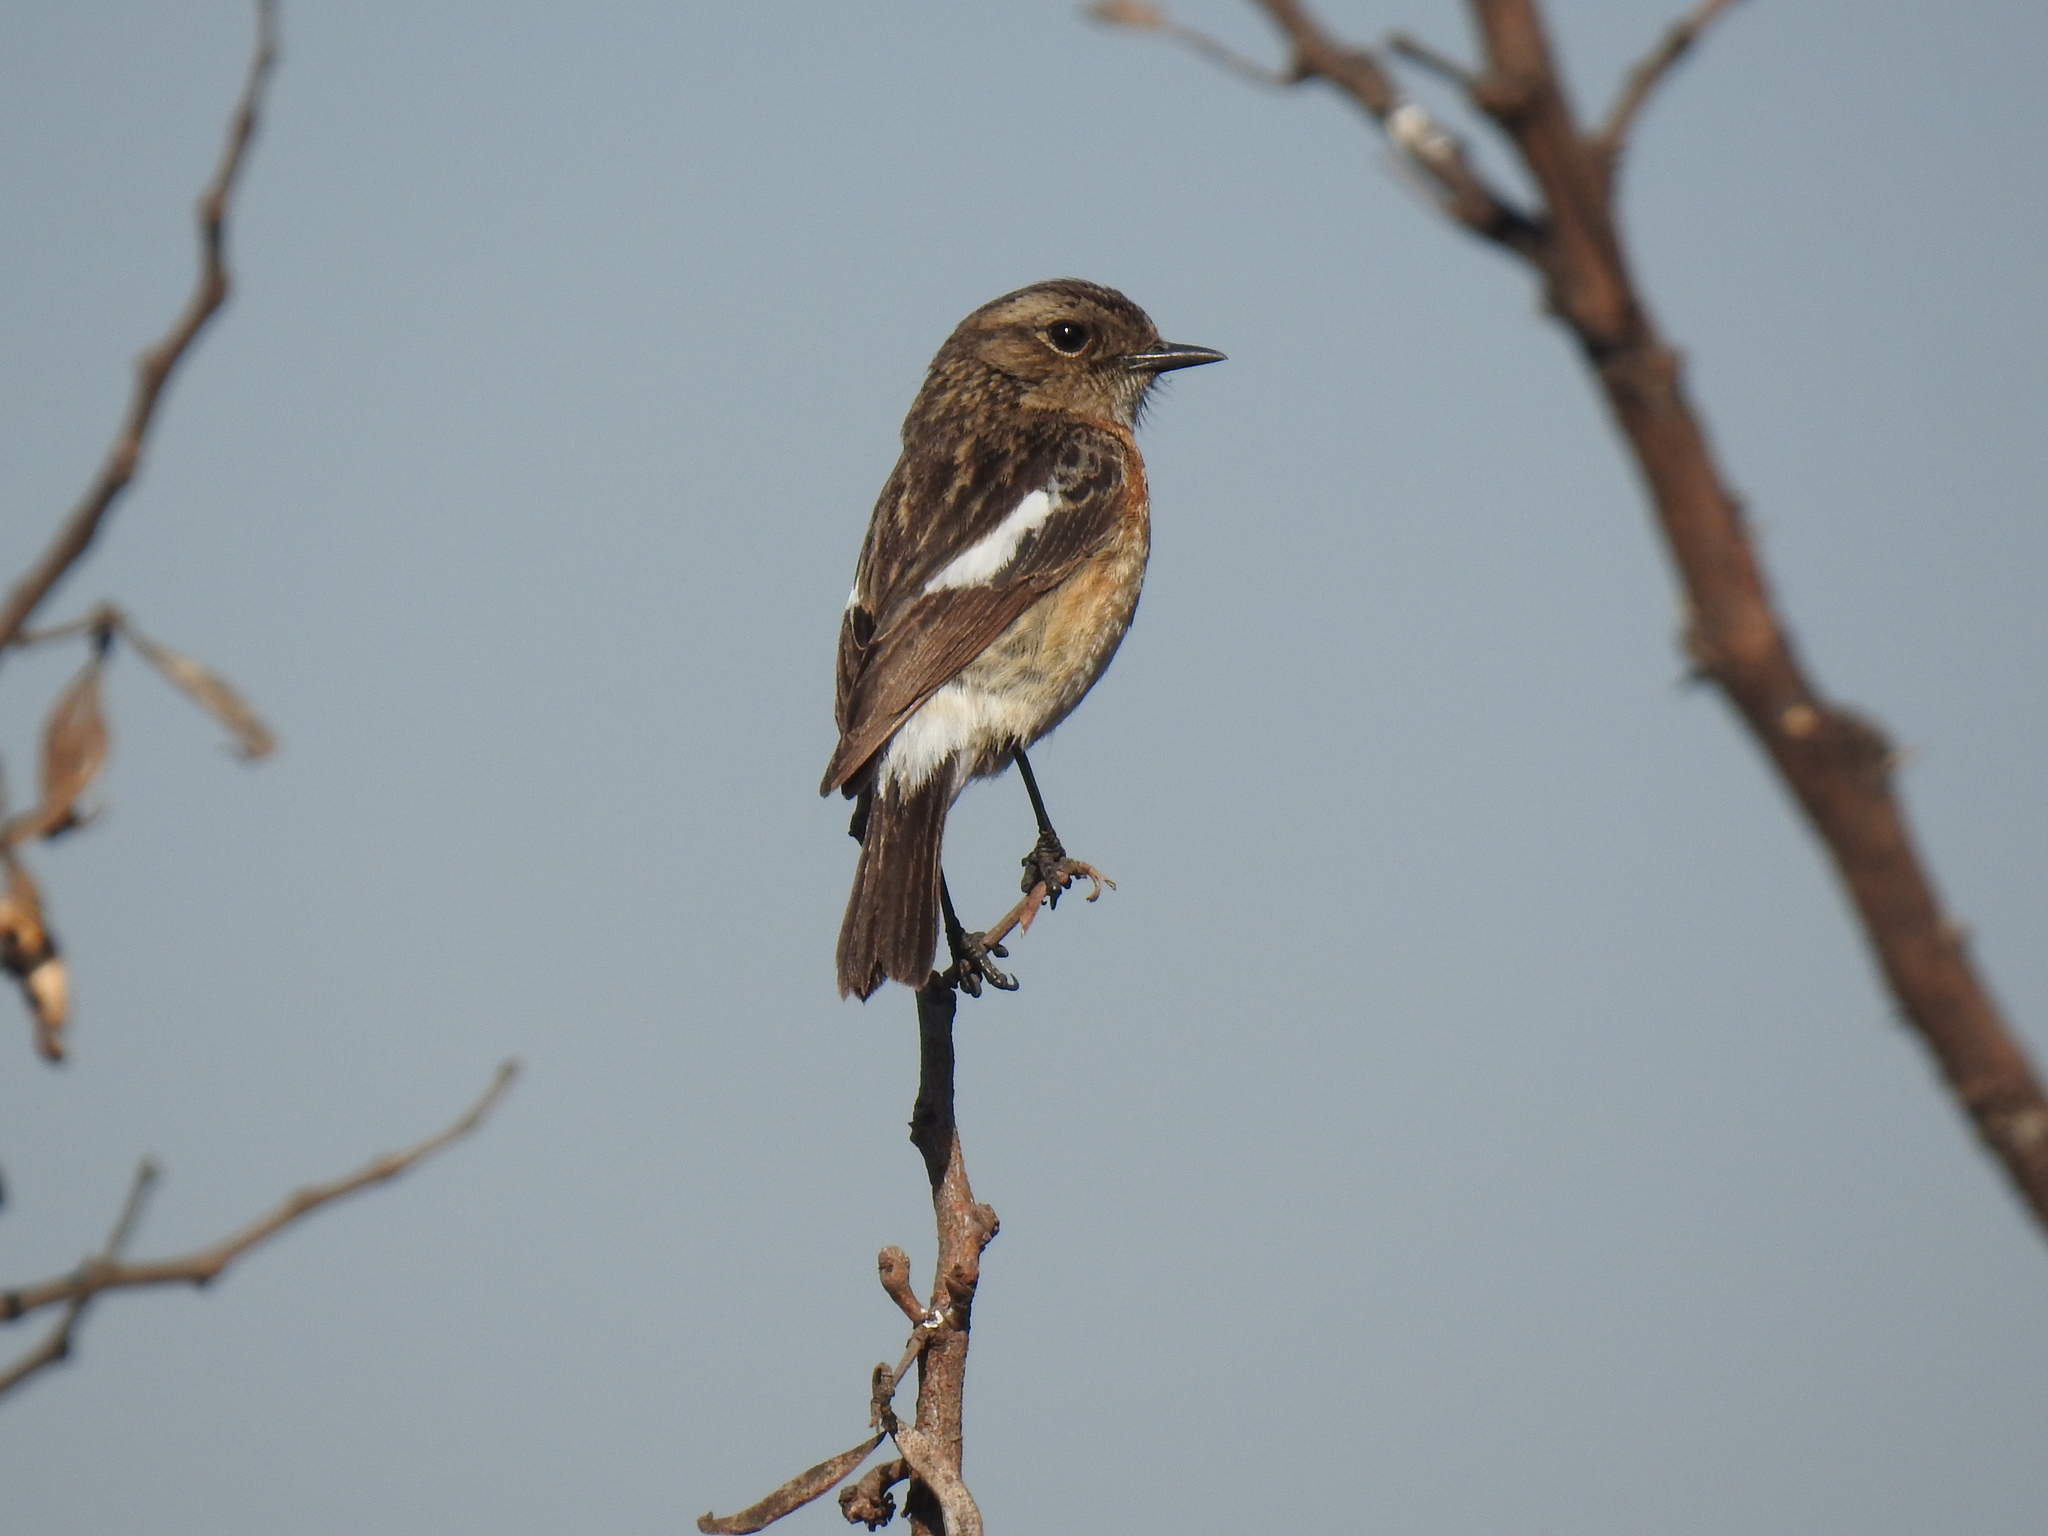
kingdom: Animalia
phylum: Chordata
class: Aves
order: Passeriformes
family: Muscicapidae
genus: Saxicola
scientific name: Saxicola torquatus
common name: African stonechat
